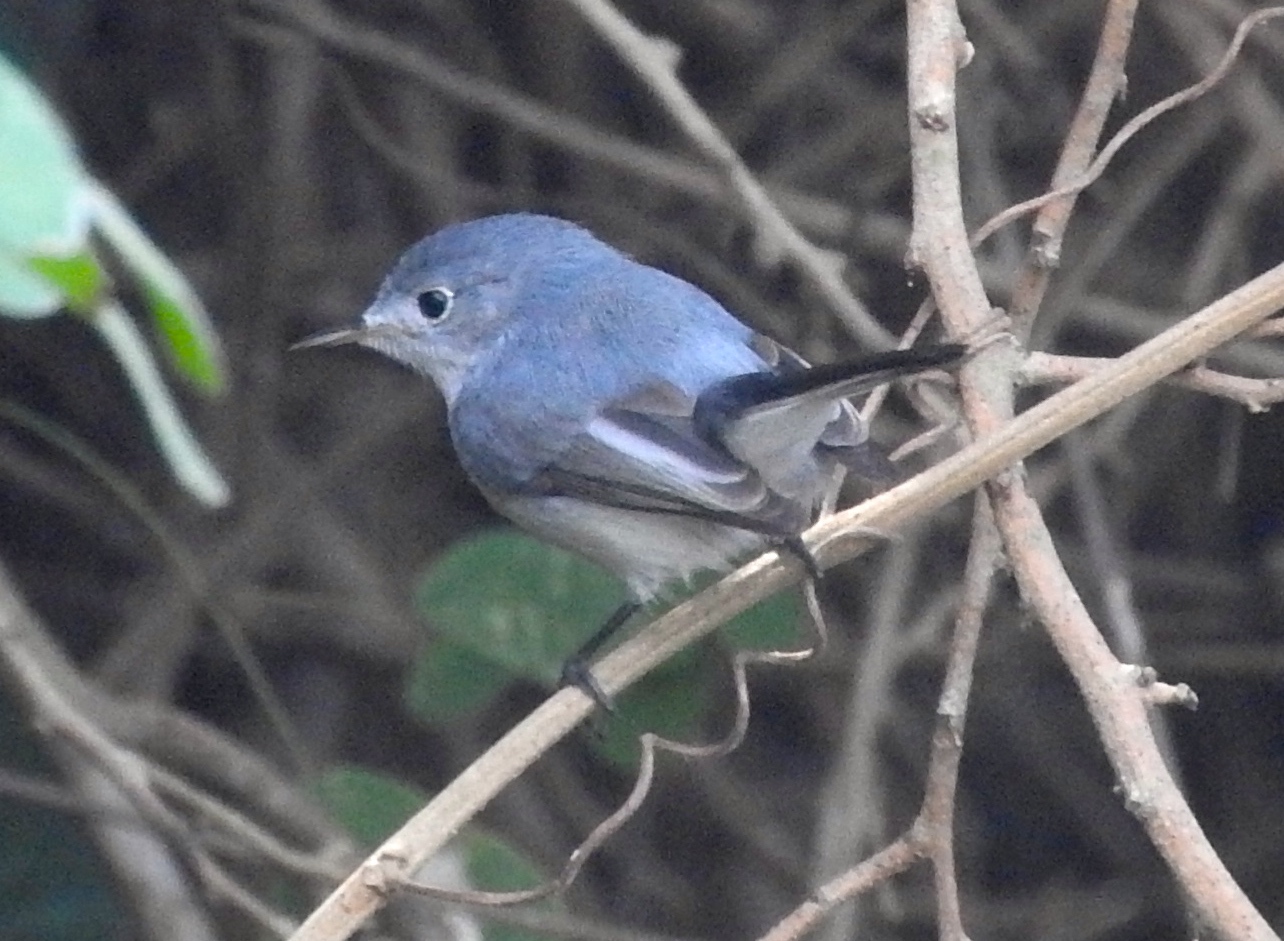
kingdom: Animalia
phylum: Chordata
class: Aves
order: Passeriformes
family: Polioptilidae
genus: Polioptila
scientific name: Polioptila caerulea
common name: Blue-gray gnatcatcher
